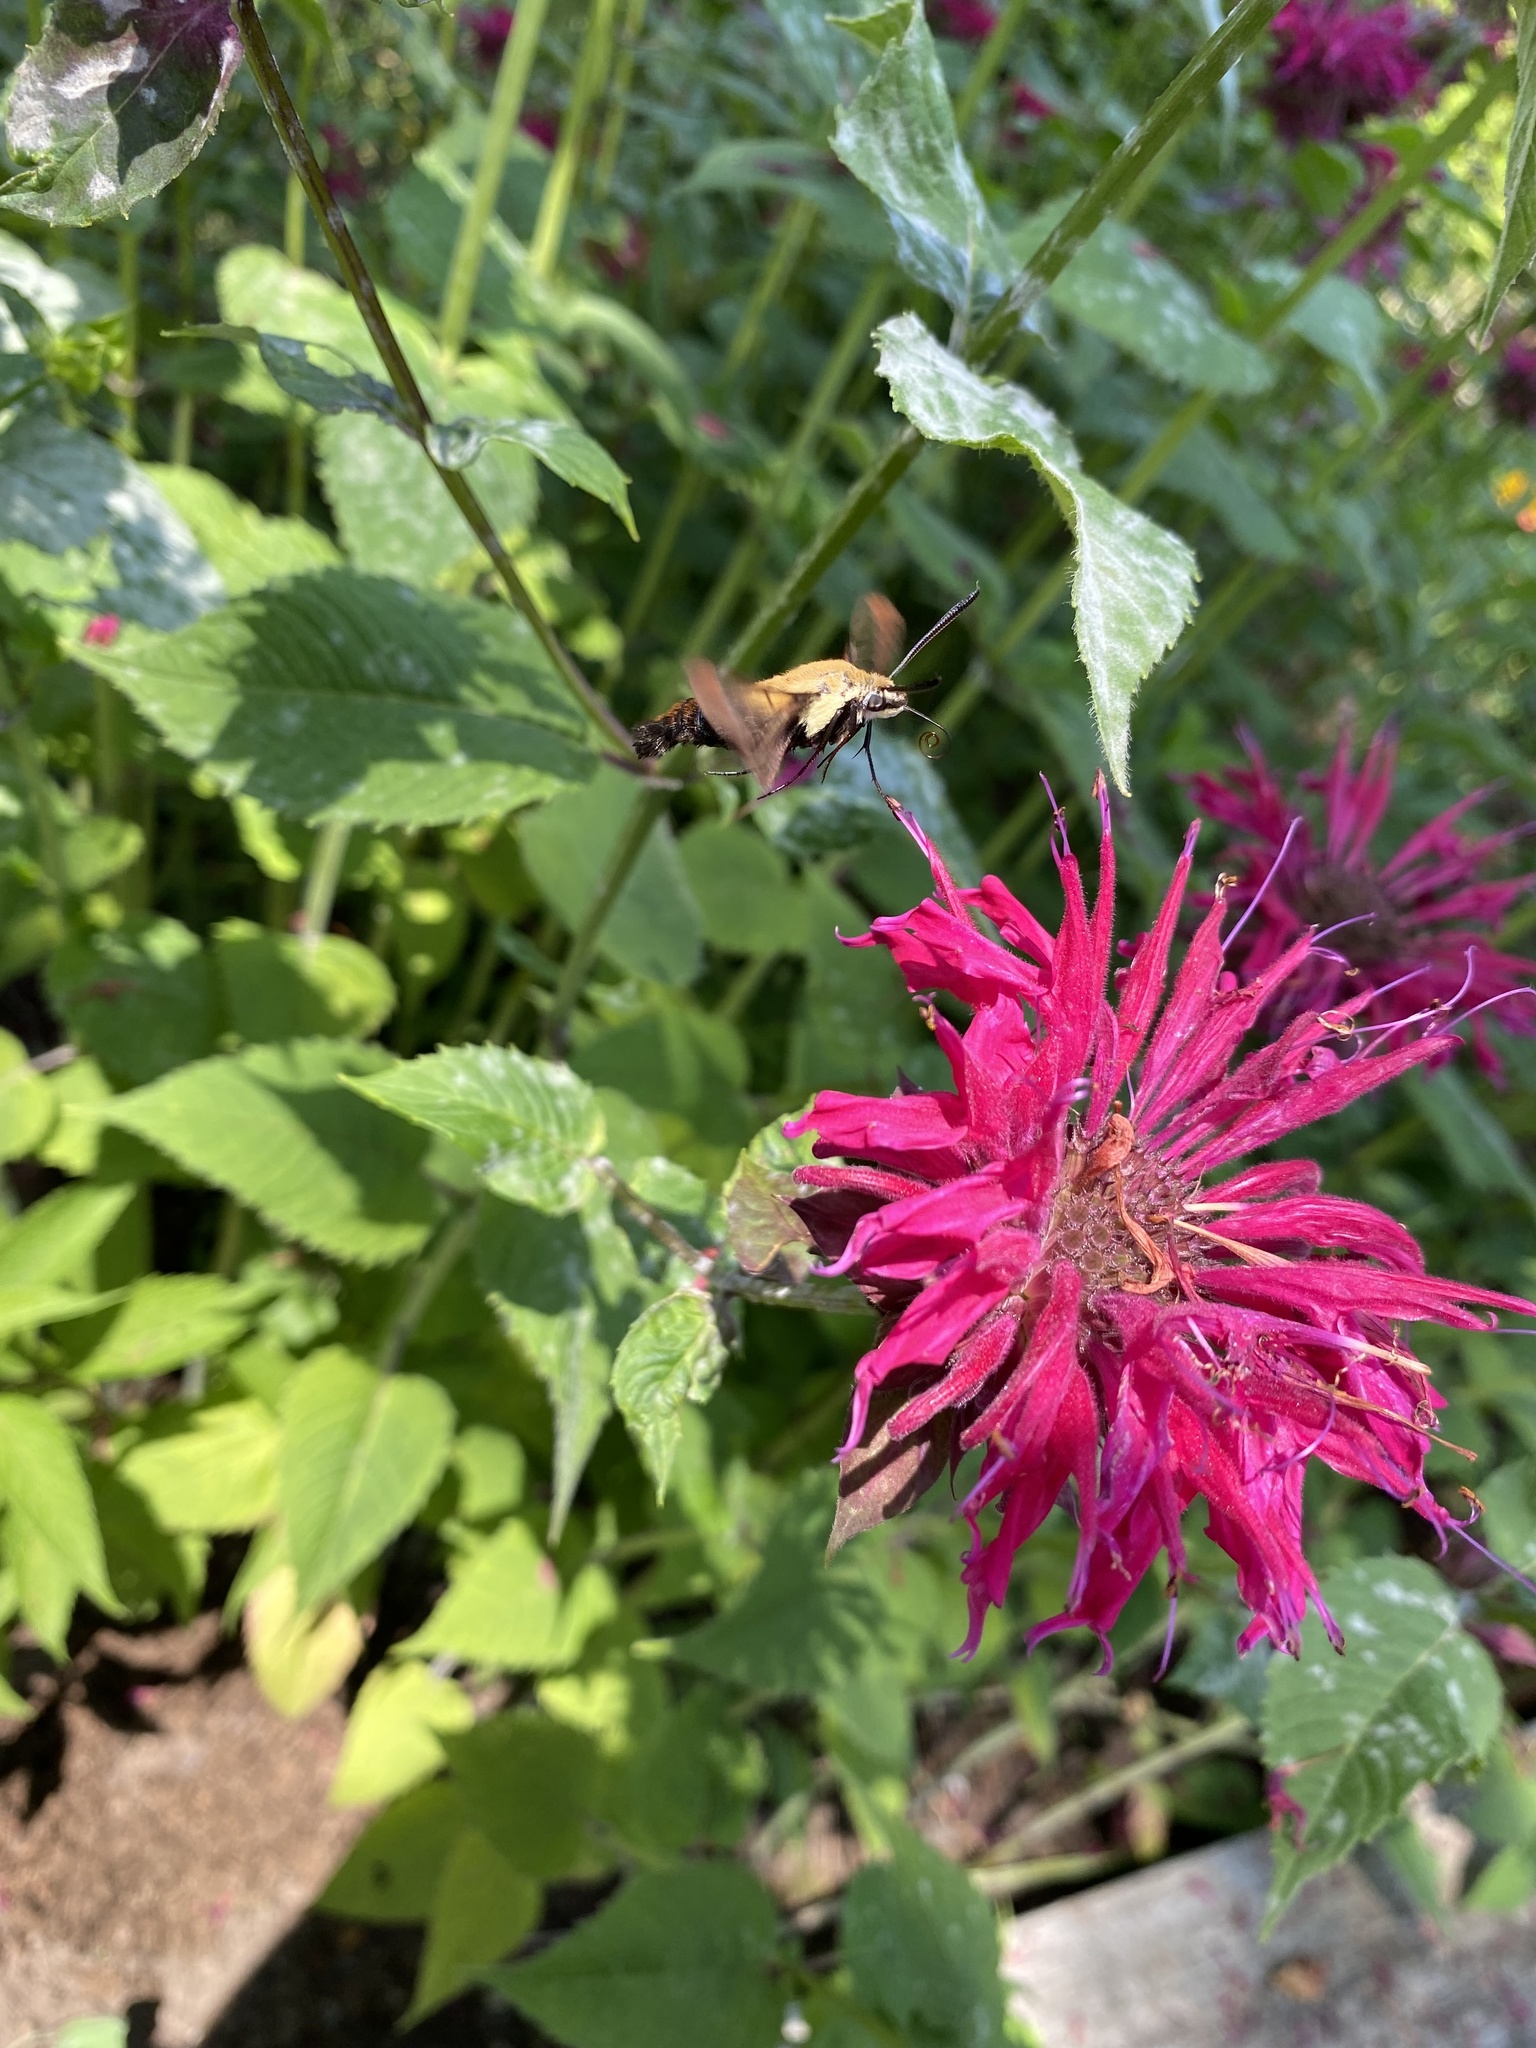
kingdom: Animalia
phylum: Arthropoda
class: Insecta
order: Lepidoptera
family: Sphingidae
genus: Hemaris
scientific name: Hemaris diffinis
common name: Bumblebee moth
